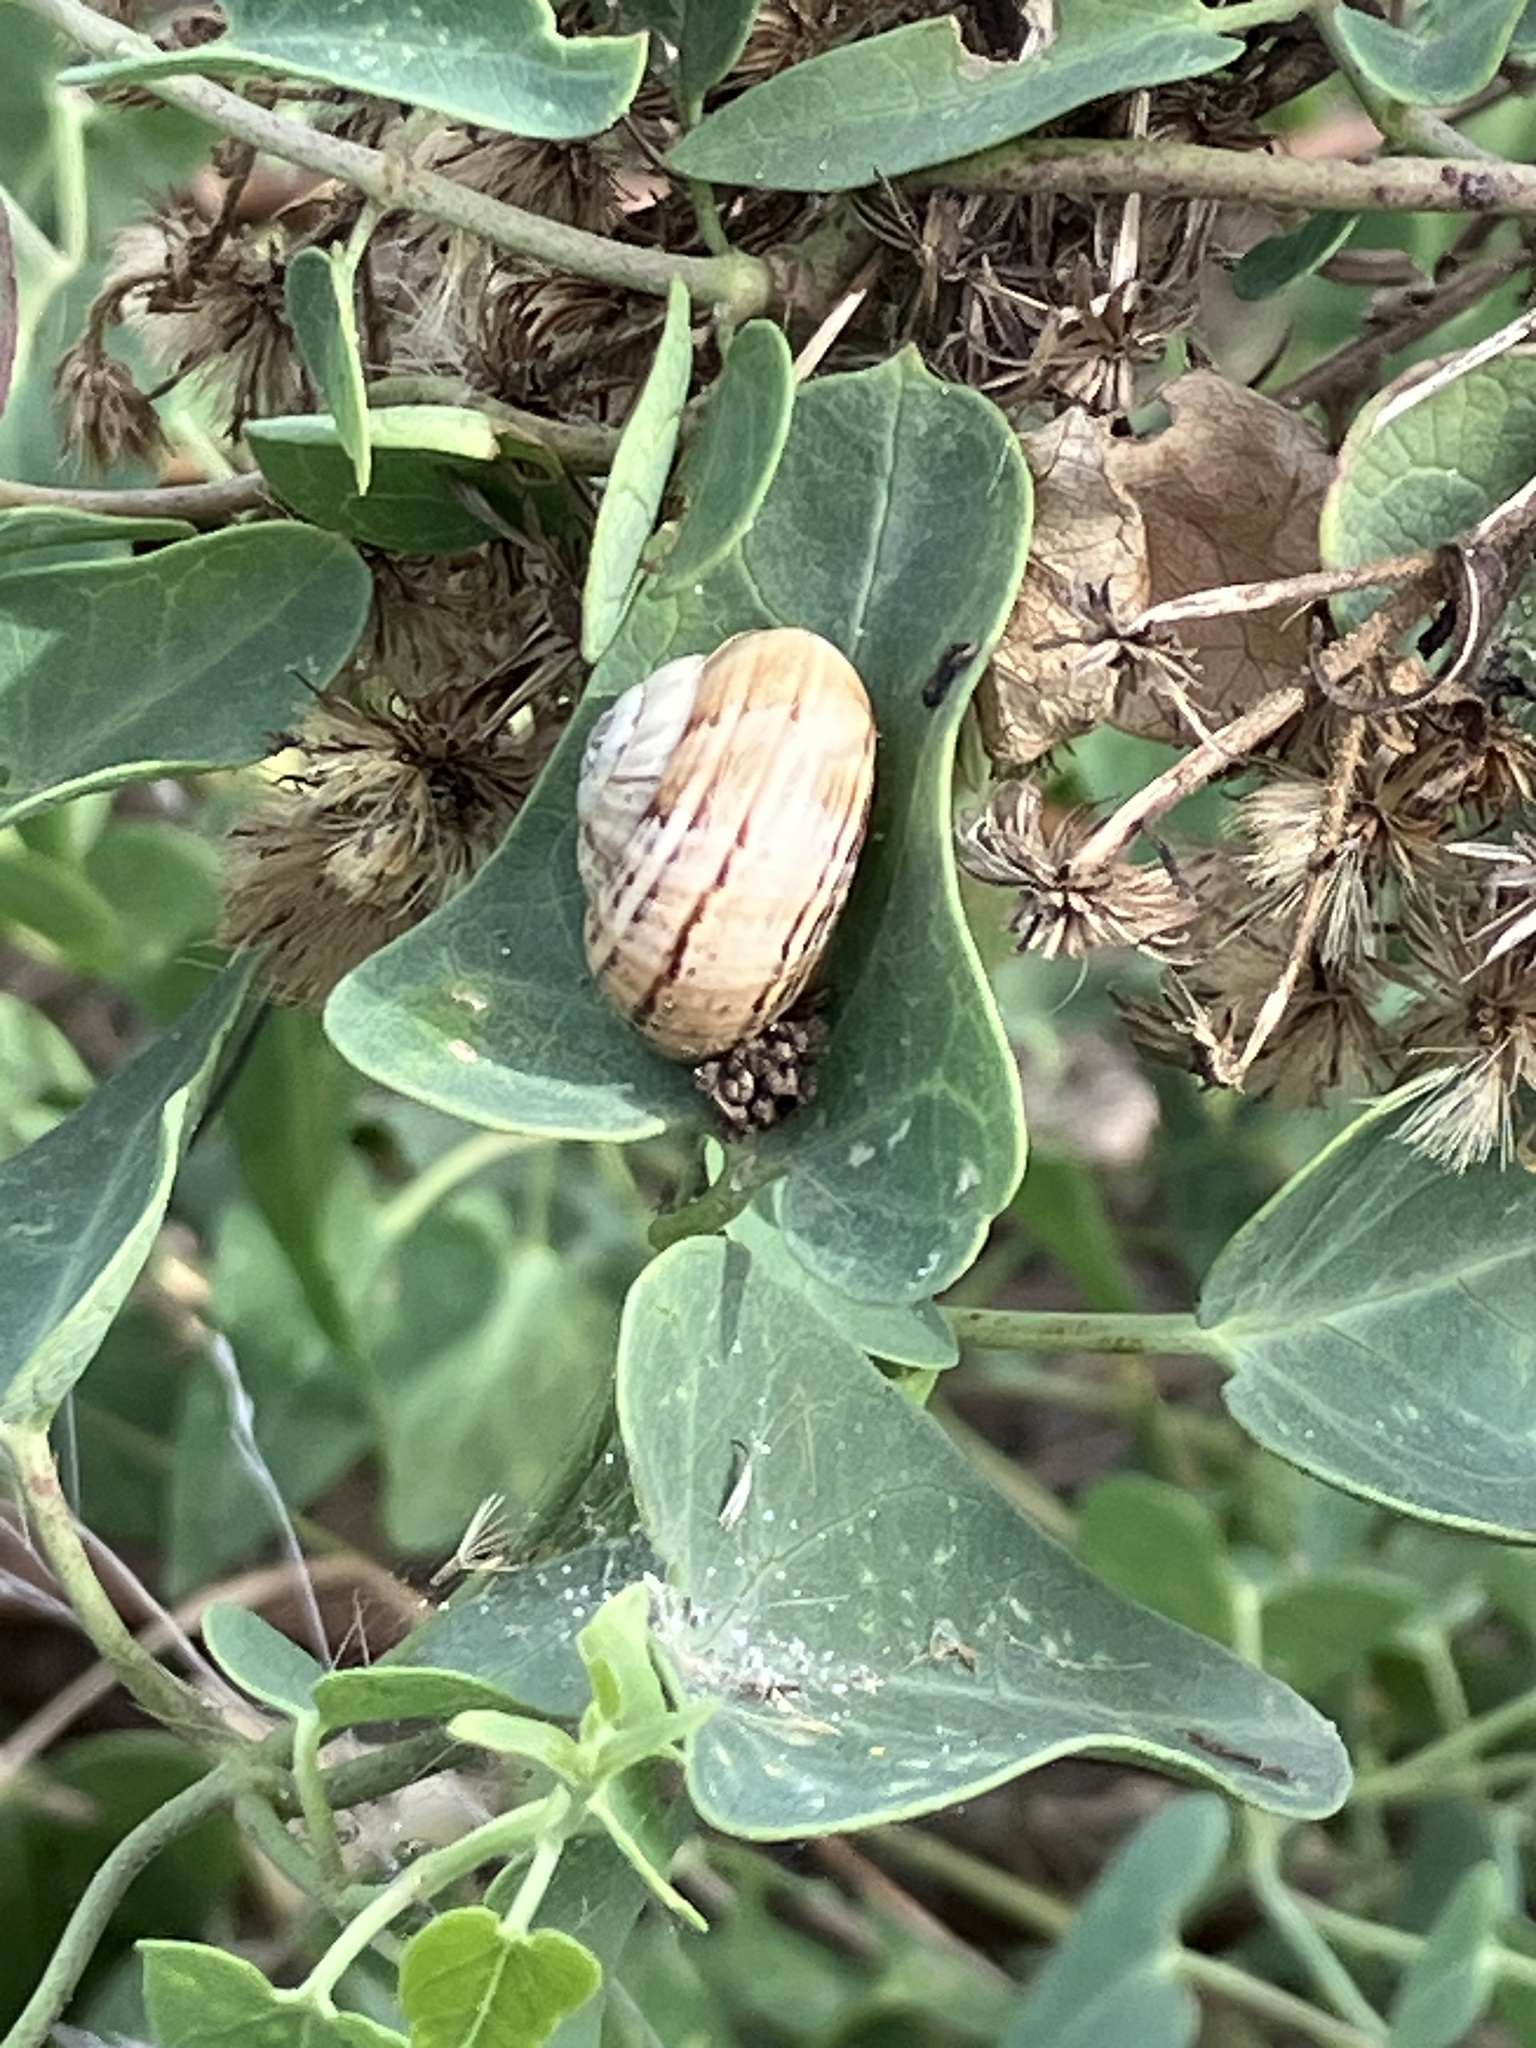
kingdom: Animalia
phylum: Mollusca
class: Gastropoda
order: Stylommatophora
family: Helicidae
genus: Theba
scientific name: Theba pisana
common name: White snail
